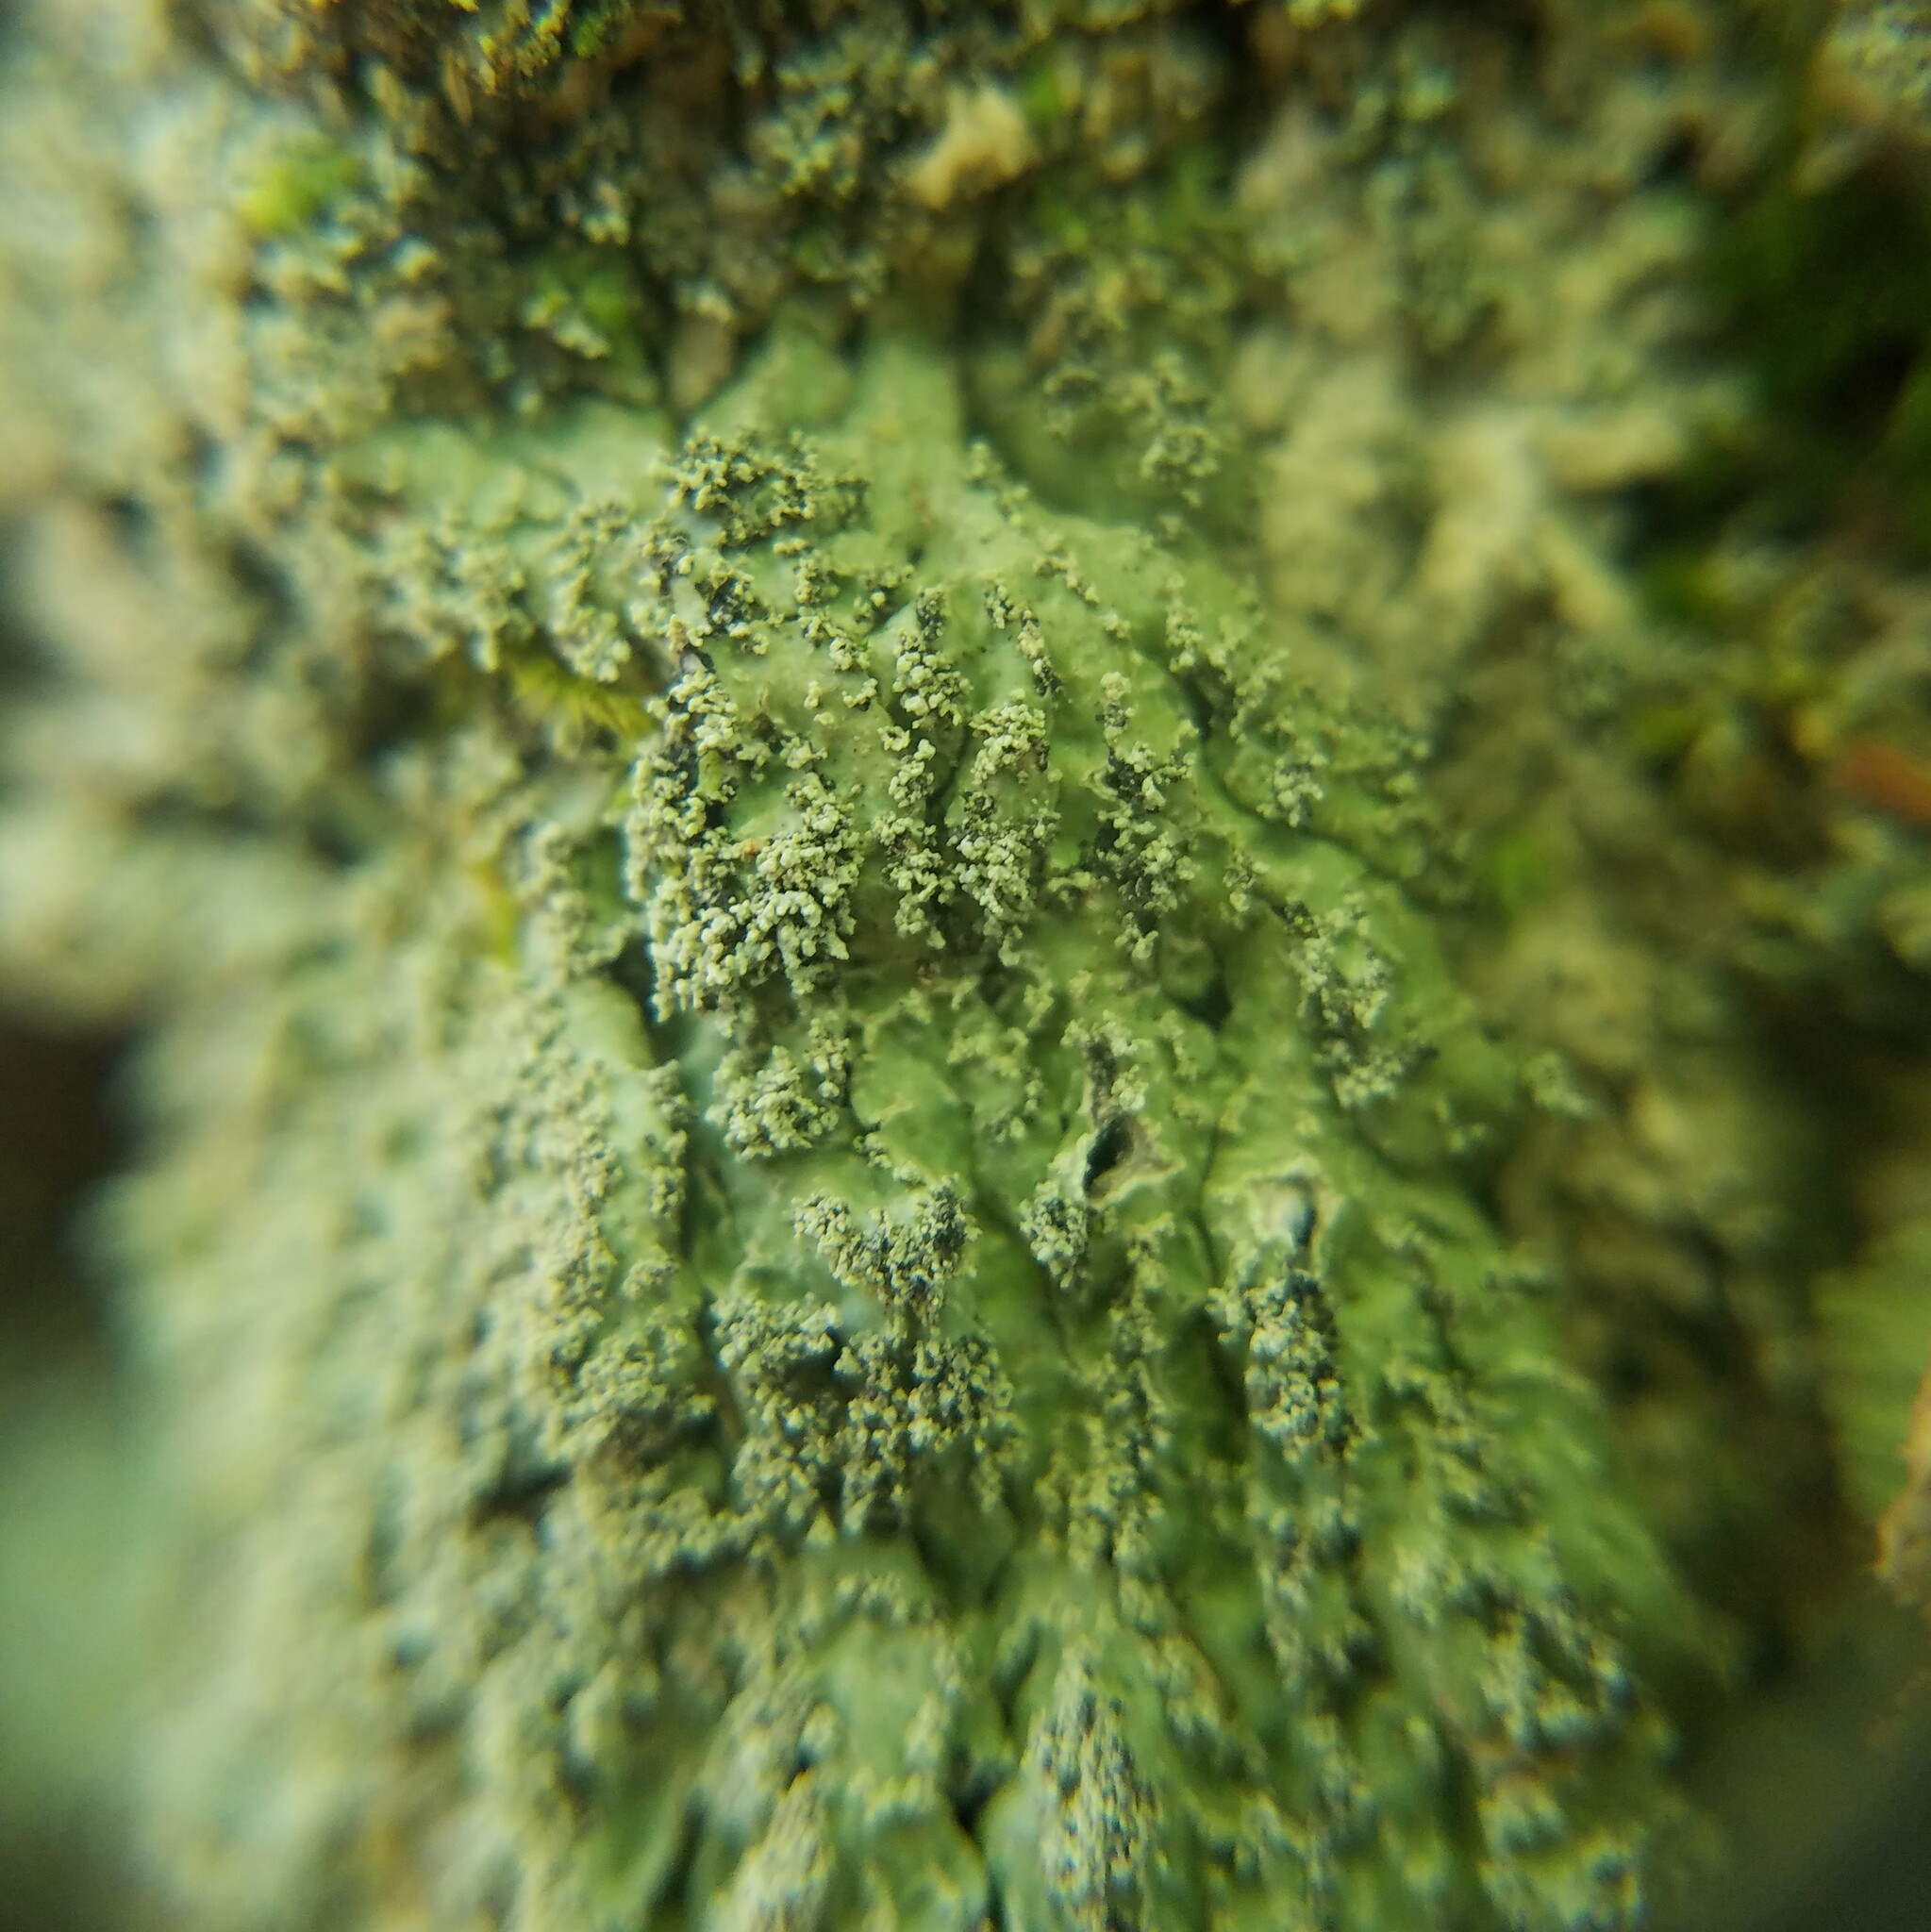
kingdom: Fungi
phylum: Ascomycota
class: Lecanoromycetes
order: Caliciales
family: Caliciaceae
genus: Pyxine
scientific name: Pyxine caesiopruinosa
